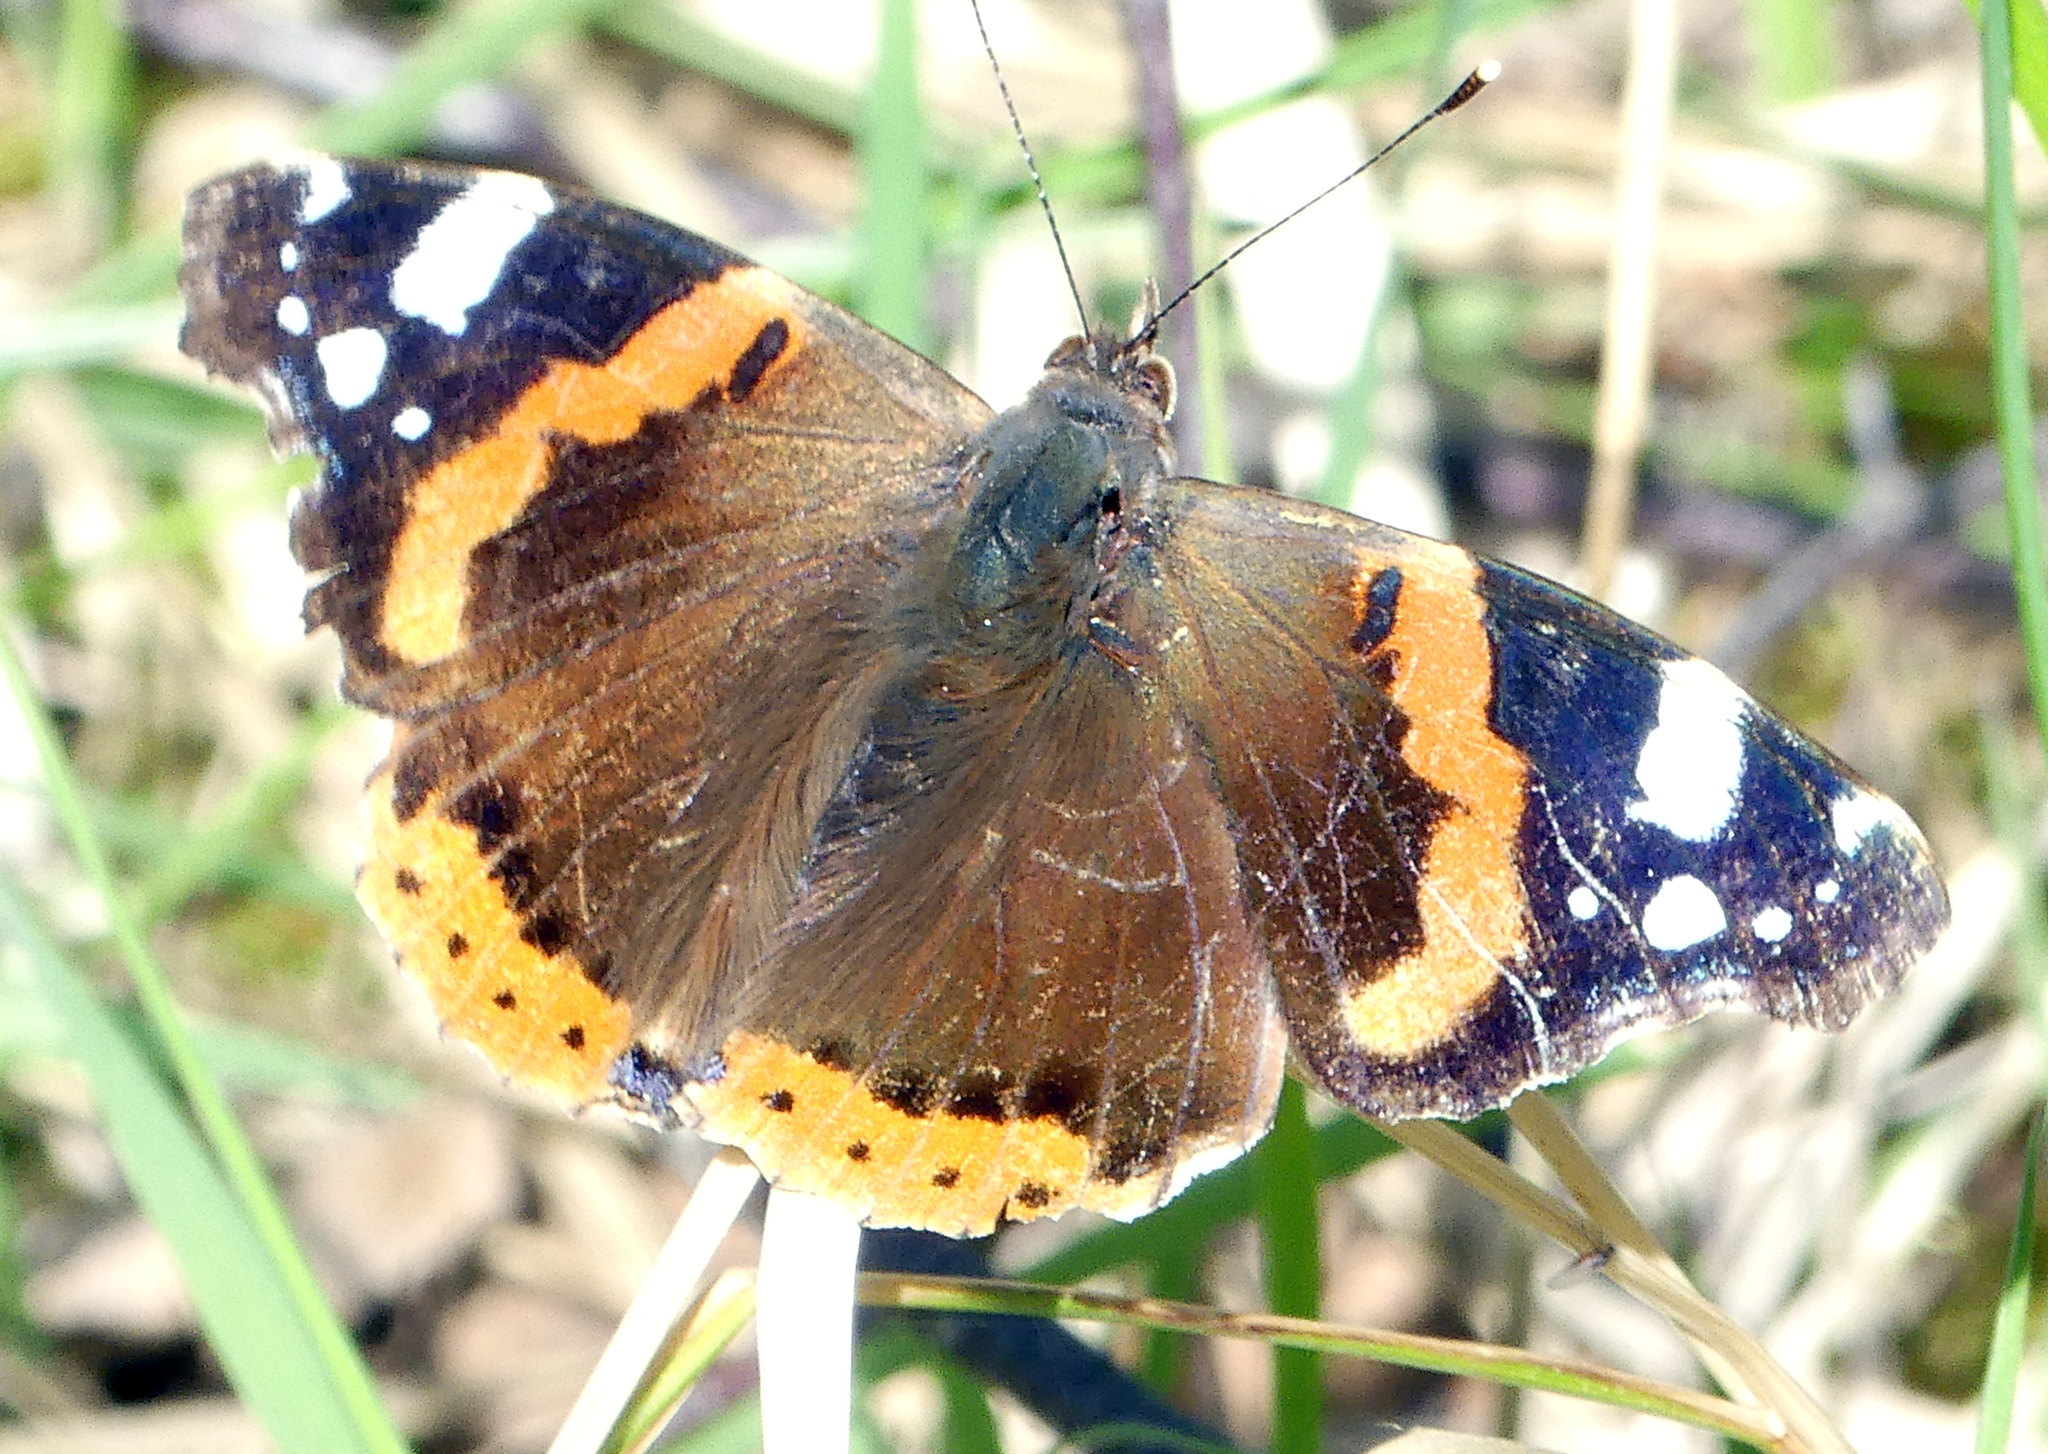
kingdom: Animalia
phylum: Arthropoda
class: Insecta
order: Lepidoptera
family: Nymphalidae
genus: Vanessa
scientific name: Vanessa atalanta
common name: Red admiral
